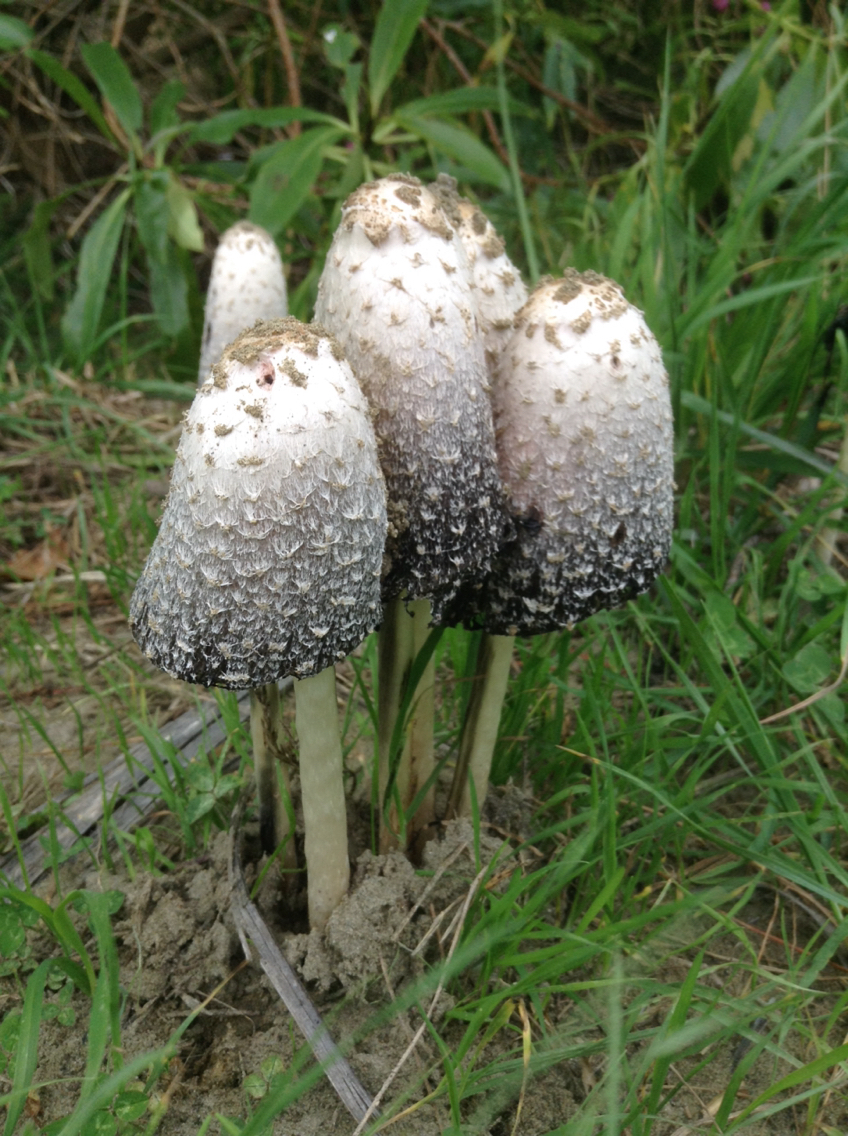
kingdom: Fungi
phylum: Basidiomycota
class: Agaricomycetes
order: Agaricales
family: Agaricaceae
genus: Coprinus
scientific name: Coprinus comatus
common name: Lawyer's wig
